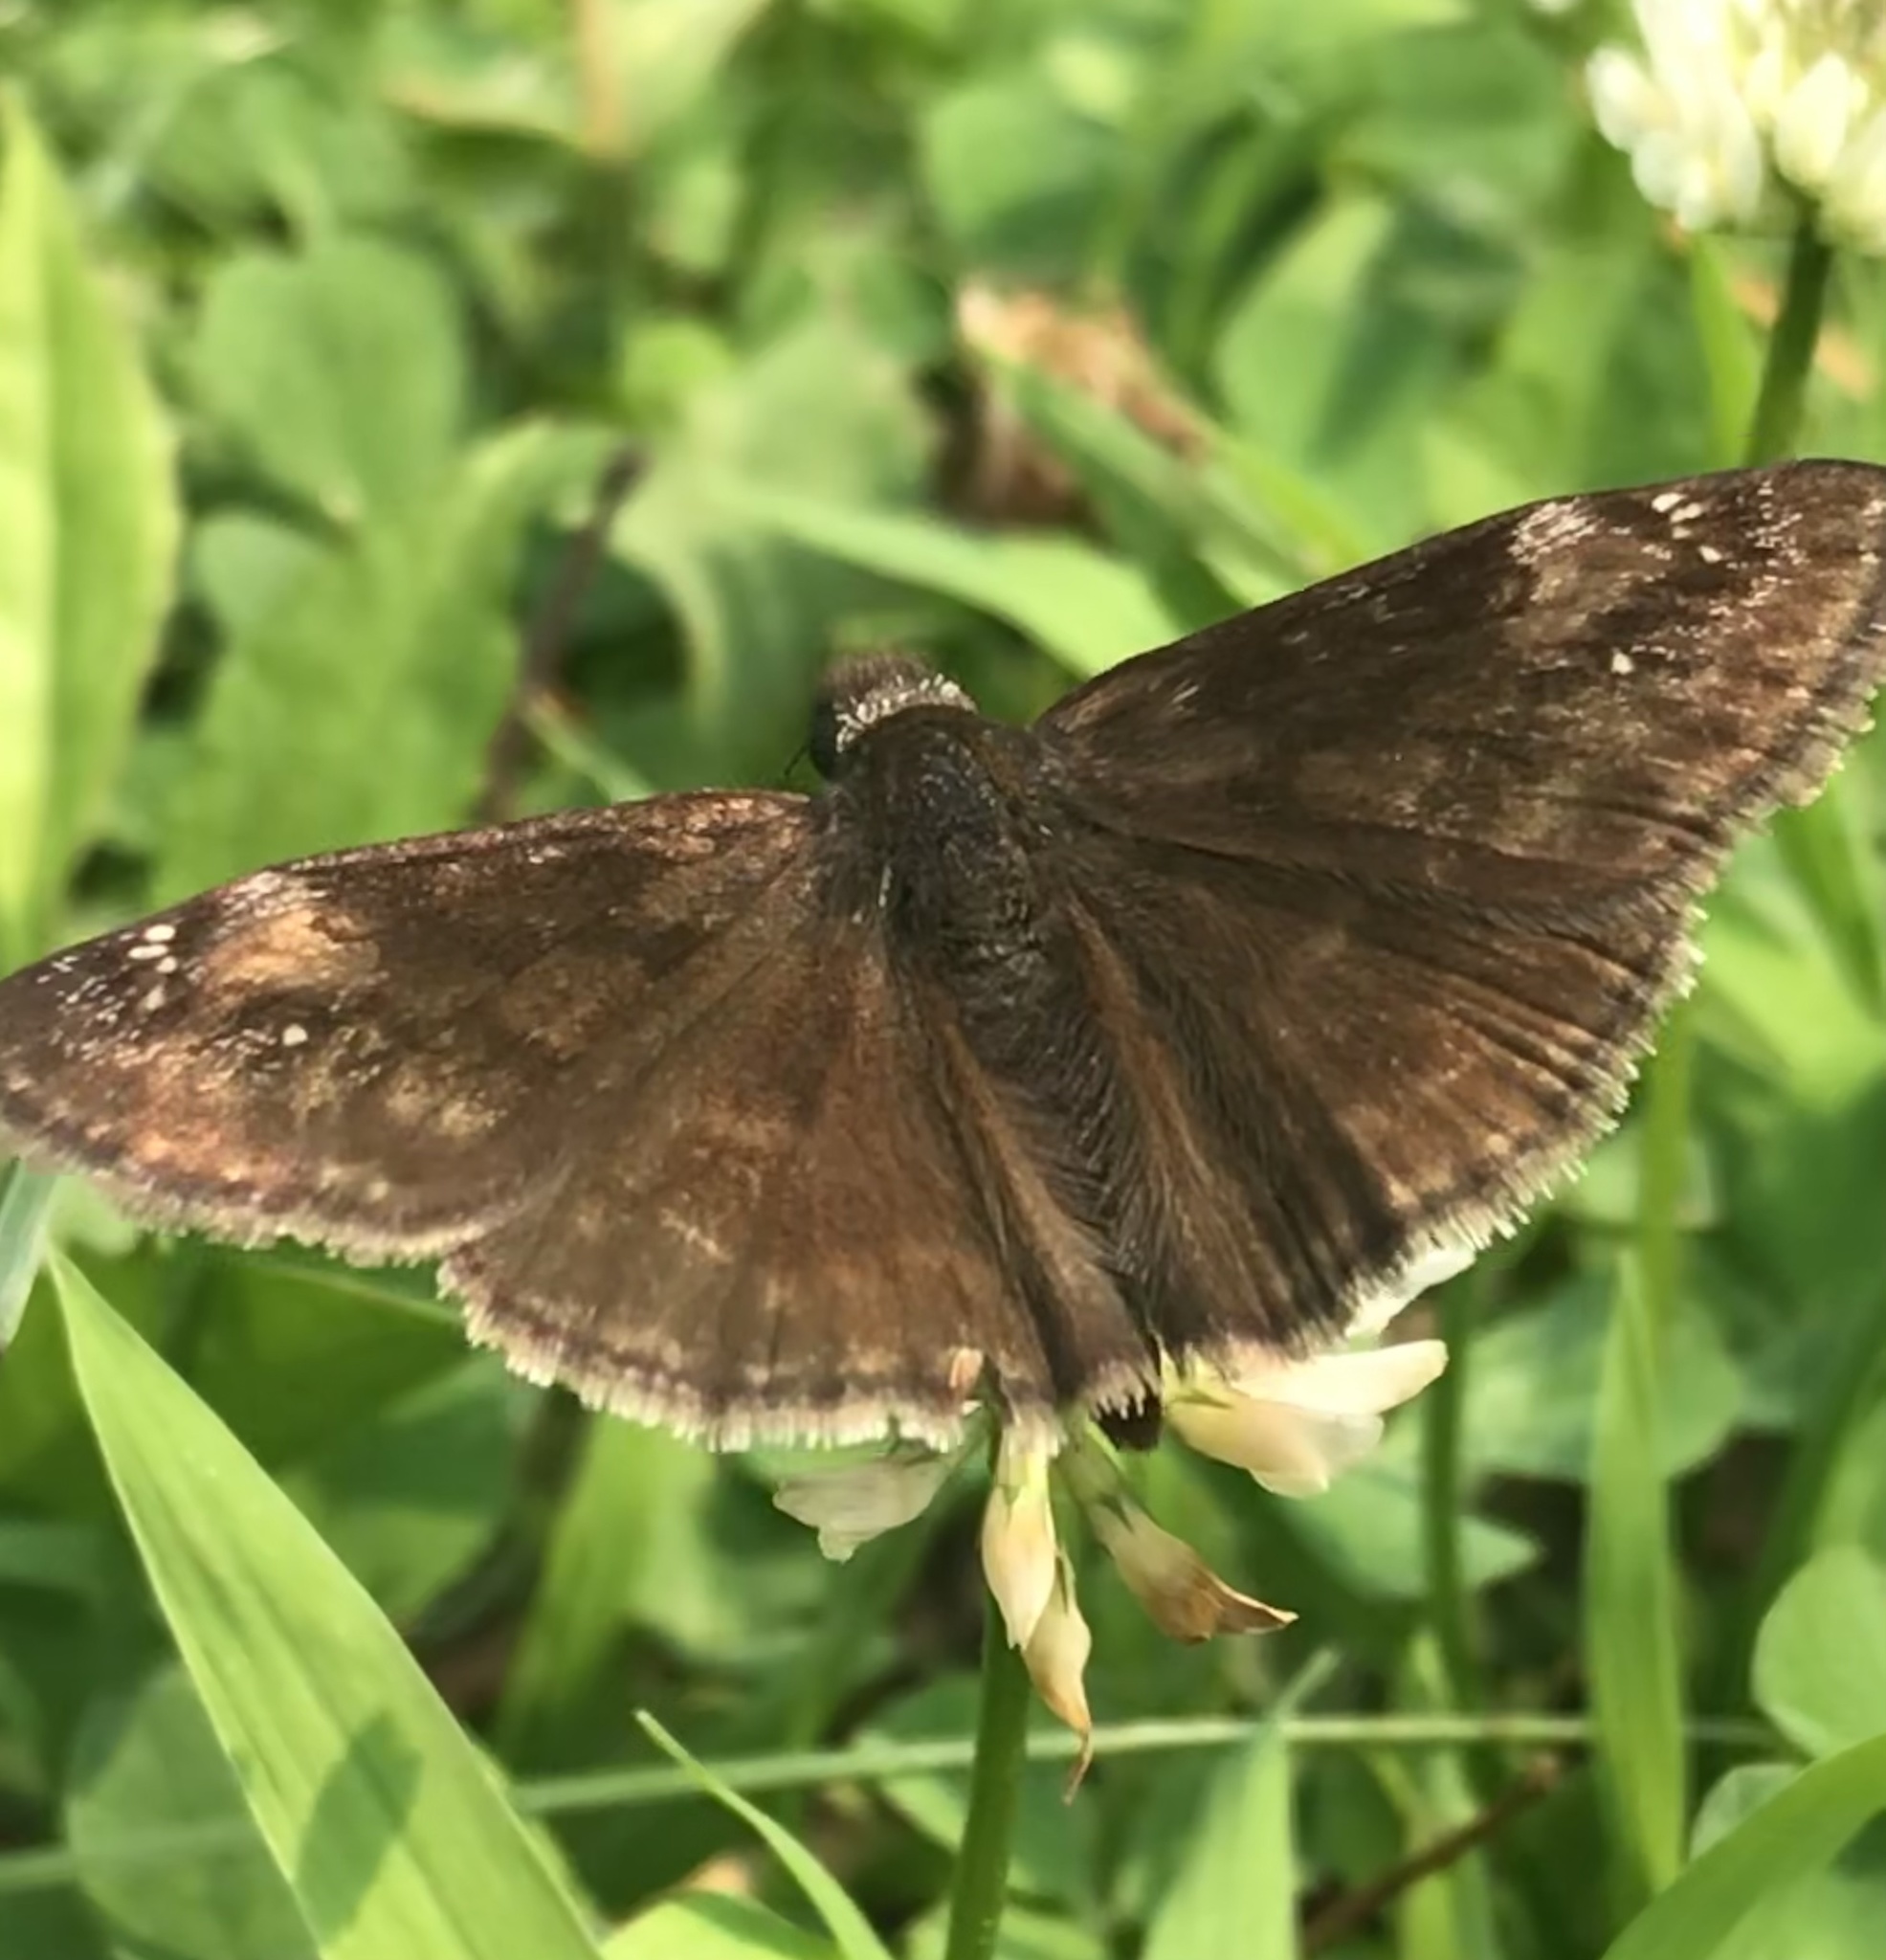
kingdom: Animalia
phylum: Arthropoda
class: Insecta
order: Lepidoptera
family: Hesperiidae
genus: Erynnis
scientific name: Erynnis baptisiae
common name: Wild indigo duskywing
